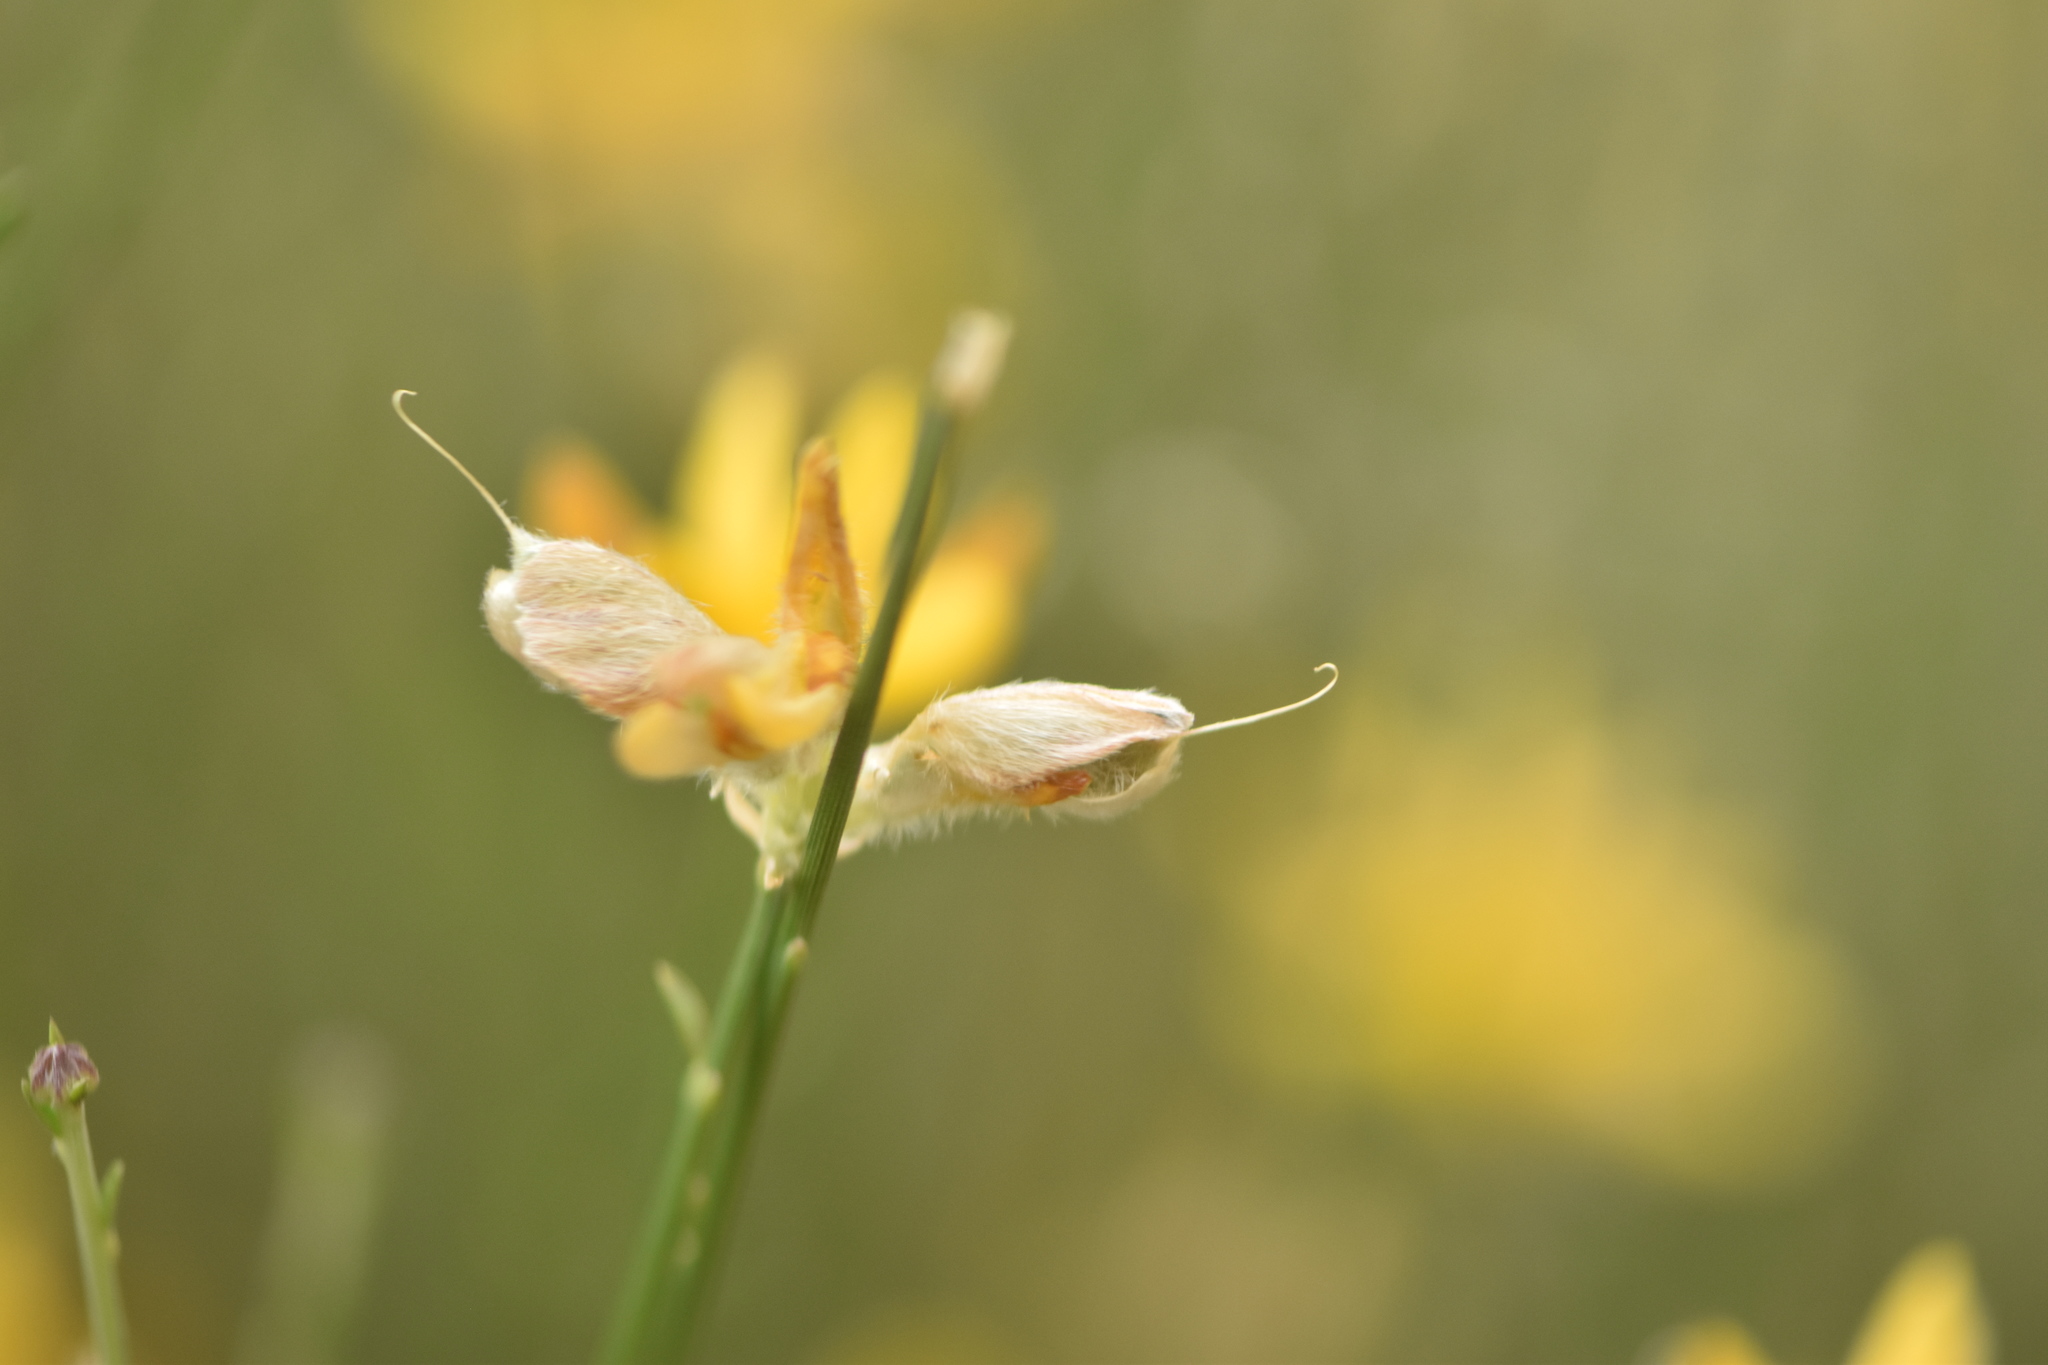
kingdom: Plantae
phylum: Tracheophyta
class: Magnoliopsida
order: Fabales
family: Fabaceae
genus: Genista
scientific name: Genista umbellata
